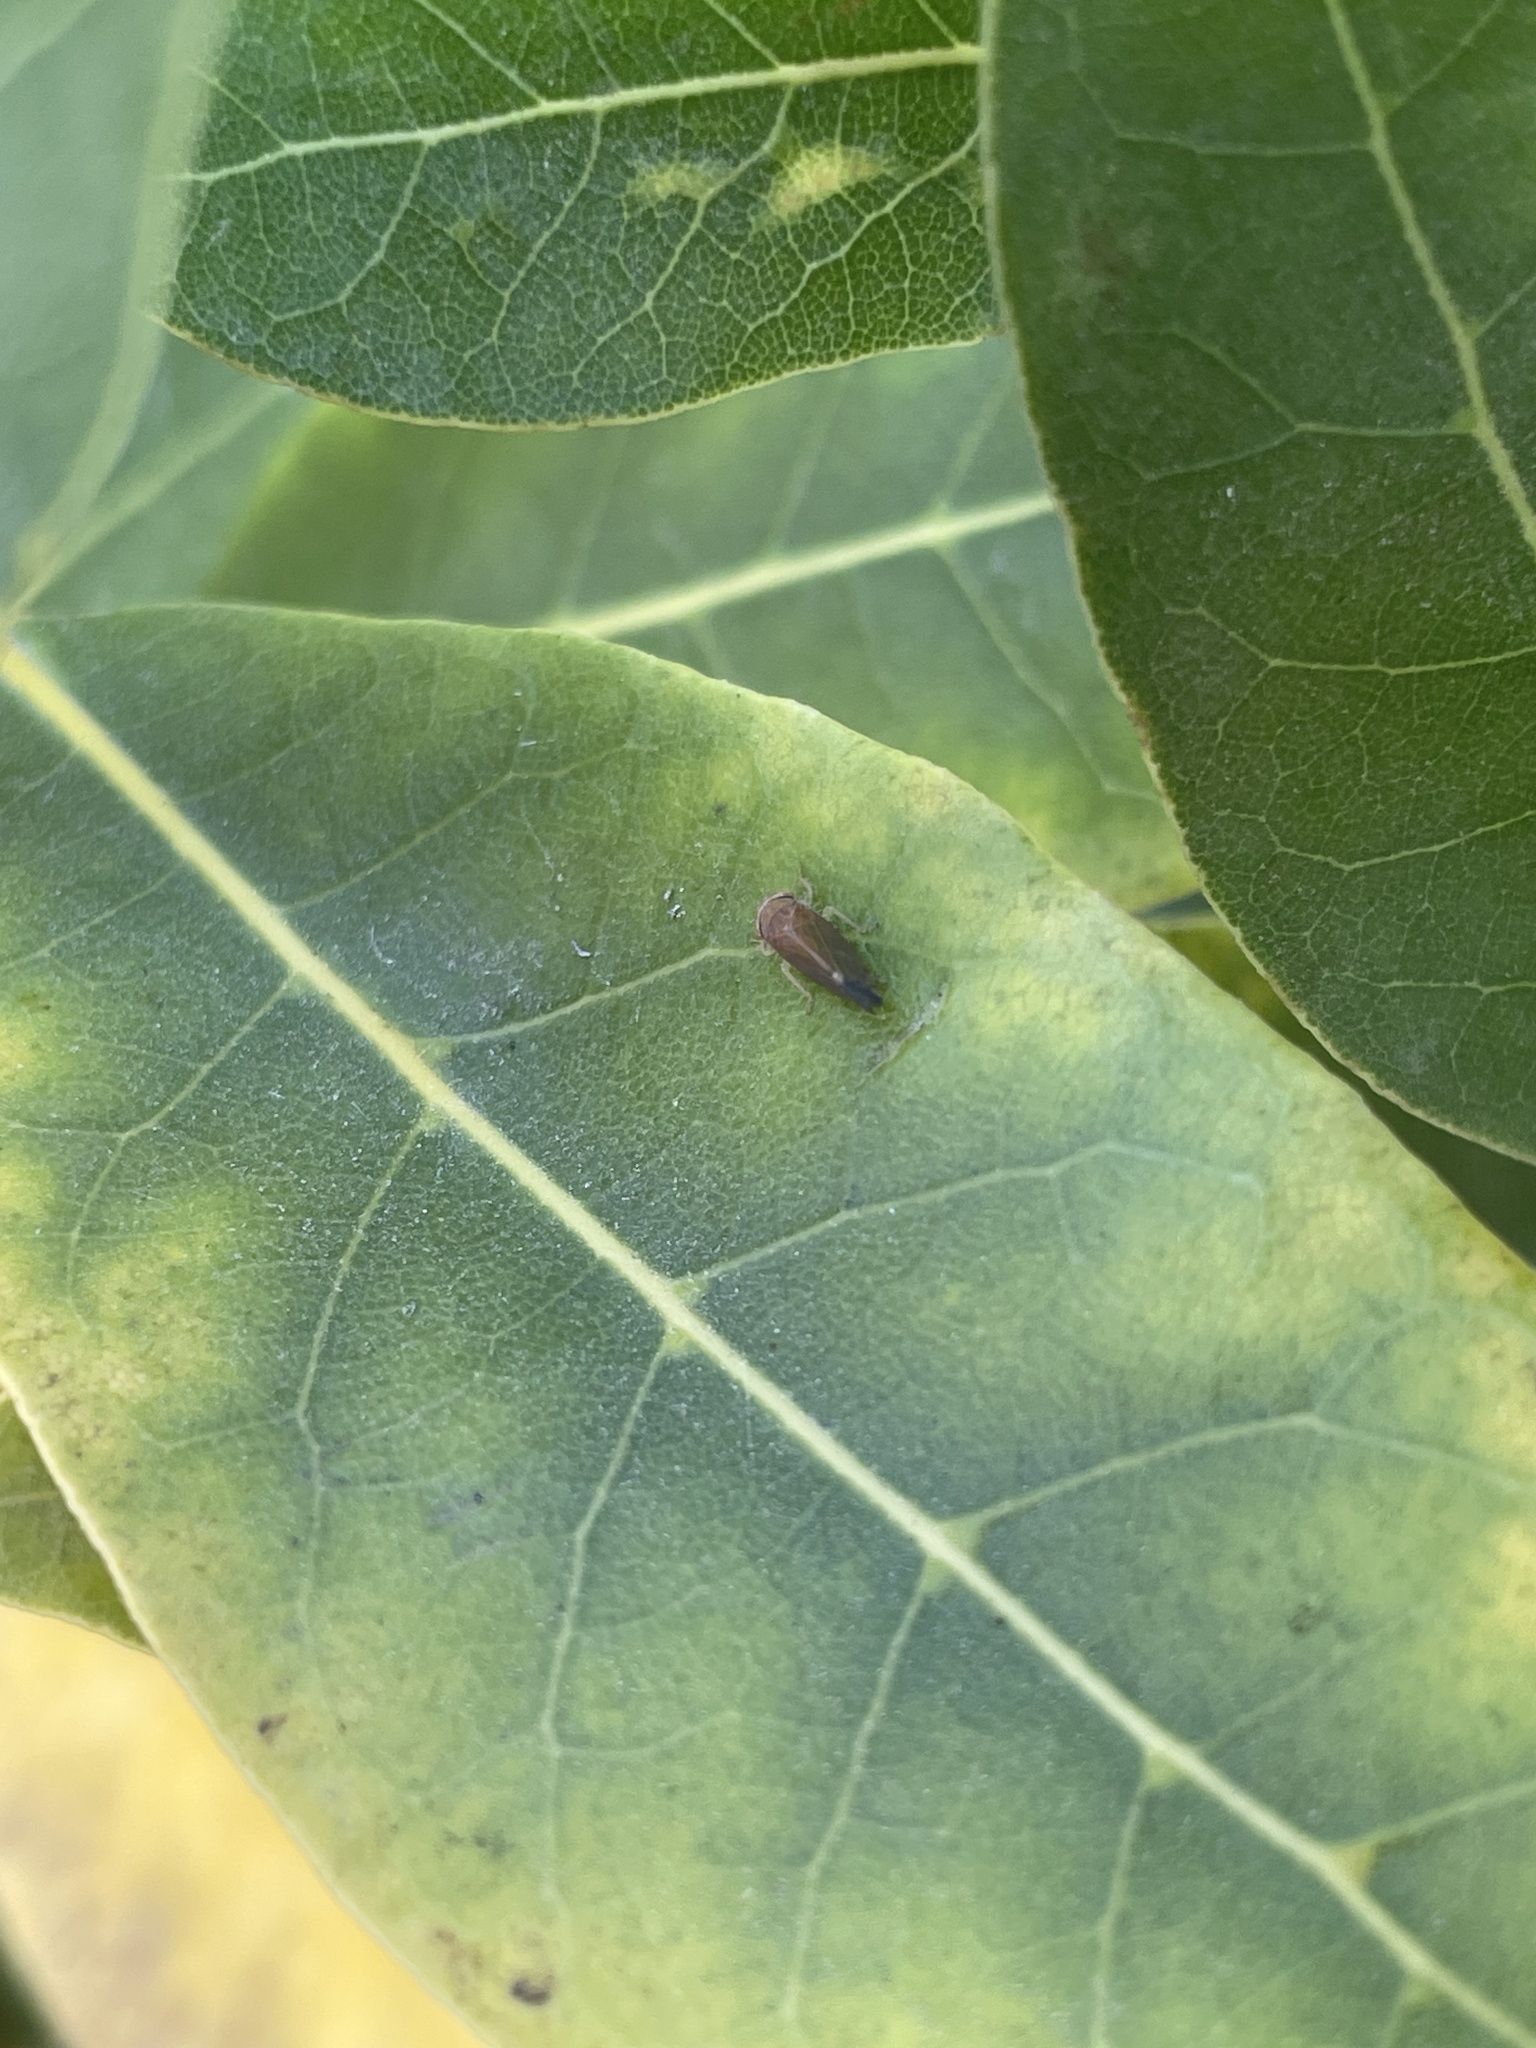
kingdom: Animalia
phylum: Arthropoda
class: Insecta
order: Hemiptera
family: Cicadellidae
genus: Placotettix
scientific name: Placotettix taeniatifrons
